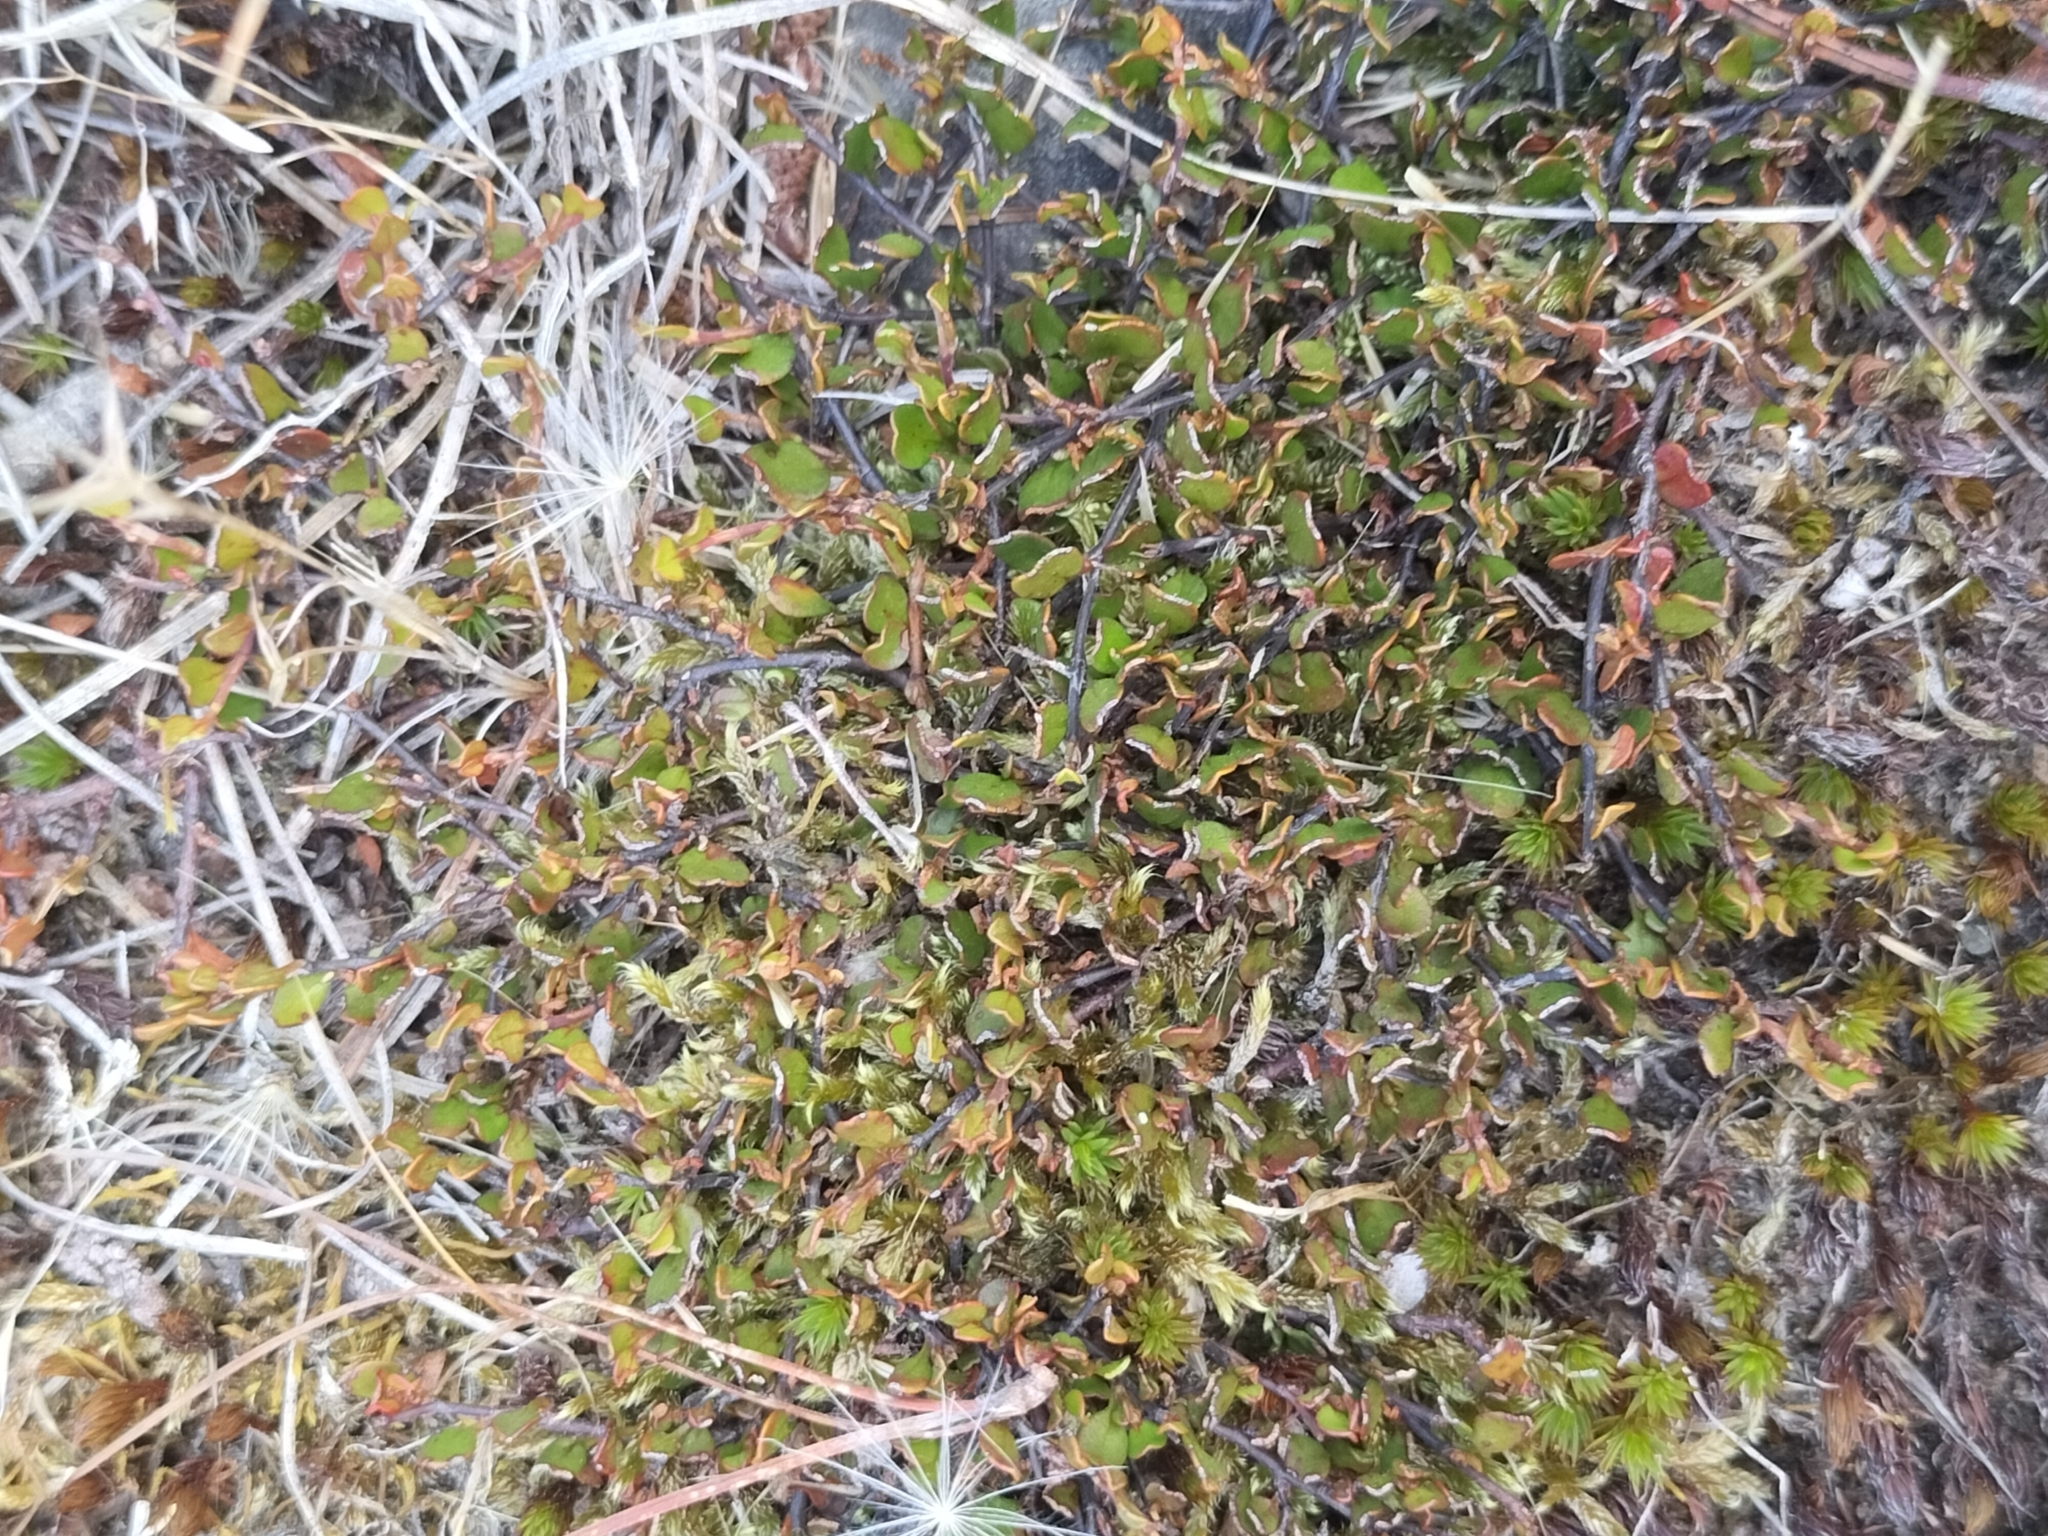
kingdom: Plantae
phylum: Tracheophyta
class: Magnoliopsida
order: Caryophyllales
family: Polygonaceae
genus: Muehlenbeckia
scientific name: Muehlenbeckia axillaris
